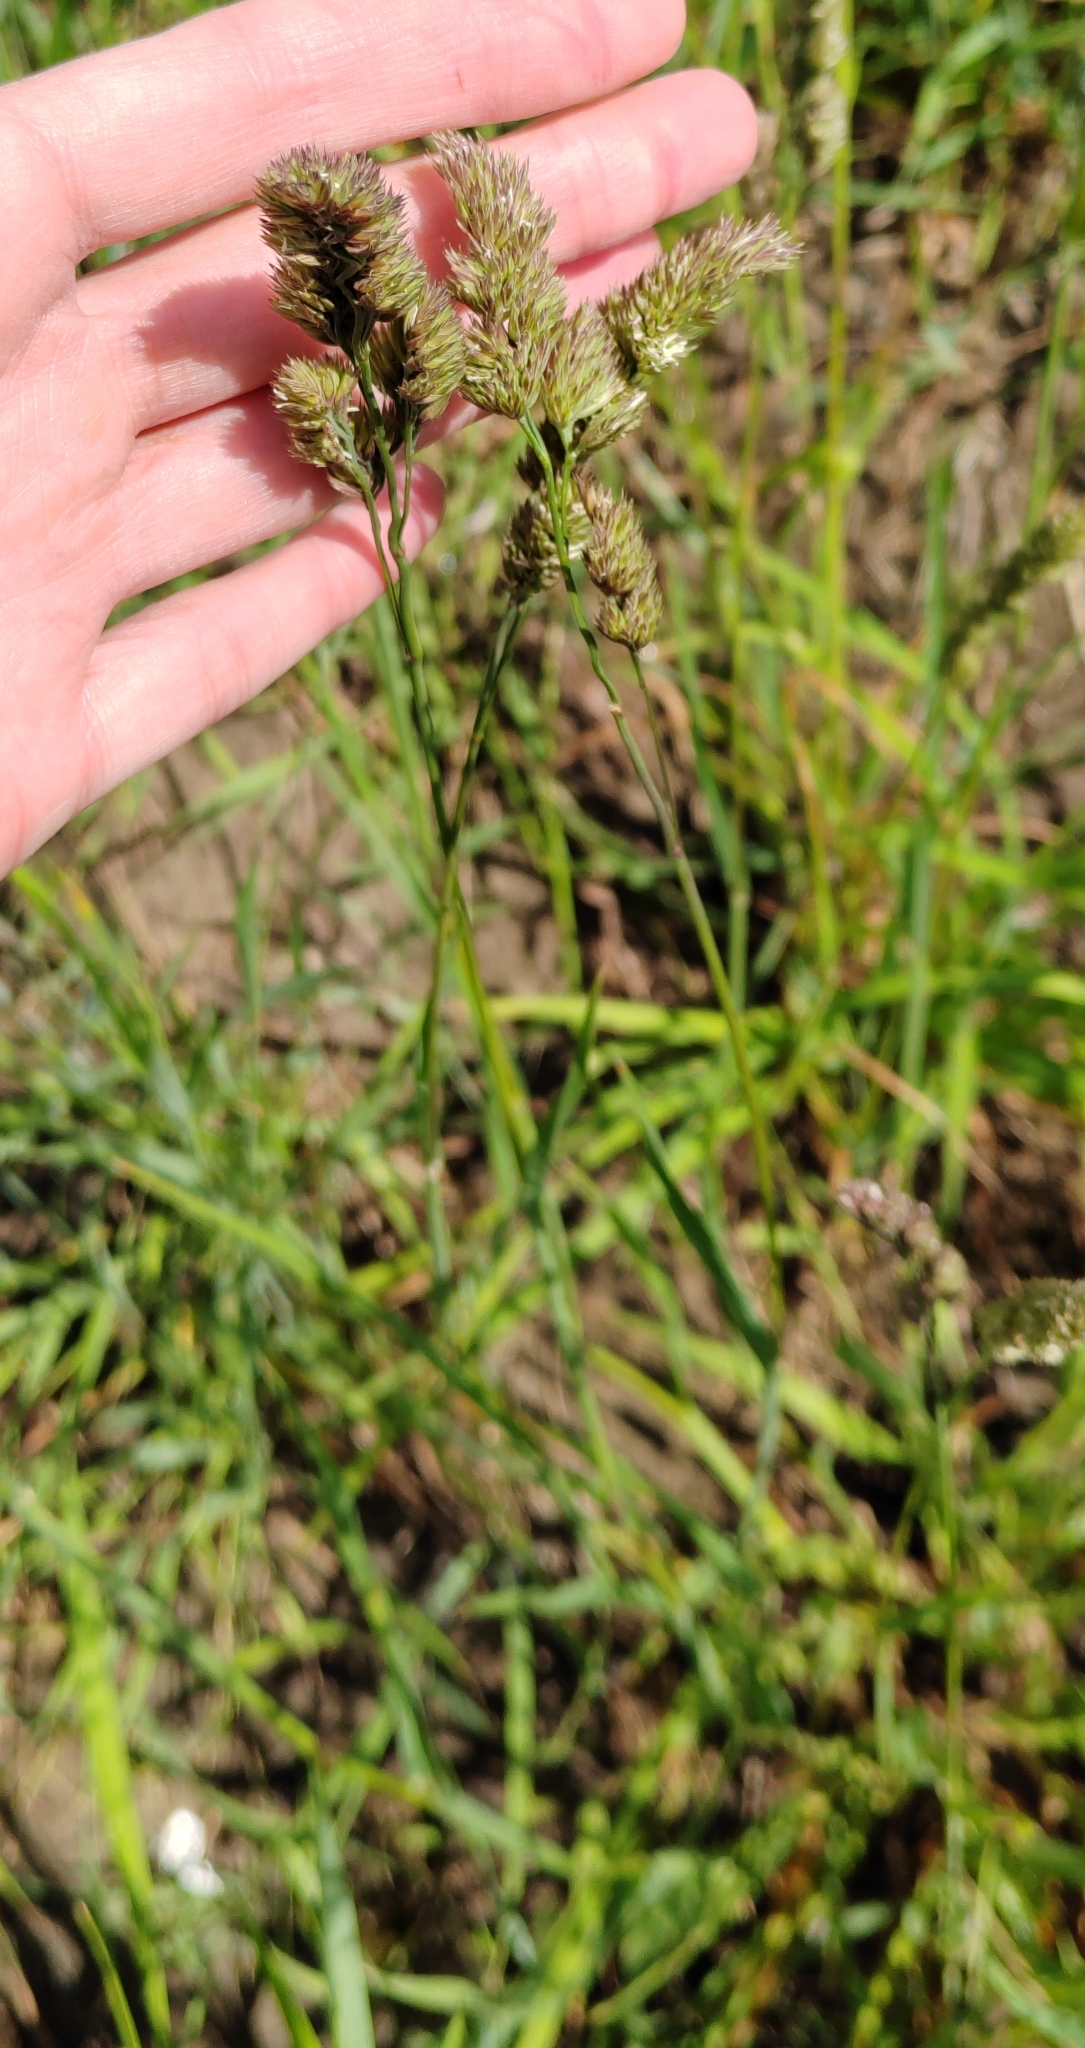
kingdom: Plantae
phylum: Tracheophyta
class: Liliopsida
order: Poales
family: Poaceae
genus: Dactylis
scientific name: Dactylis glomerata
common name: Orchardgrass
